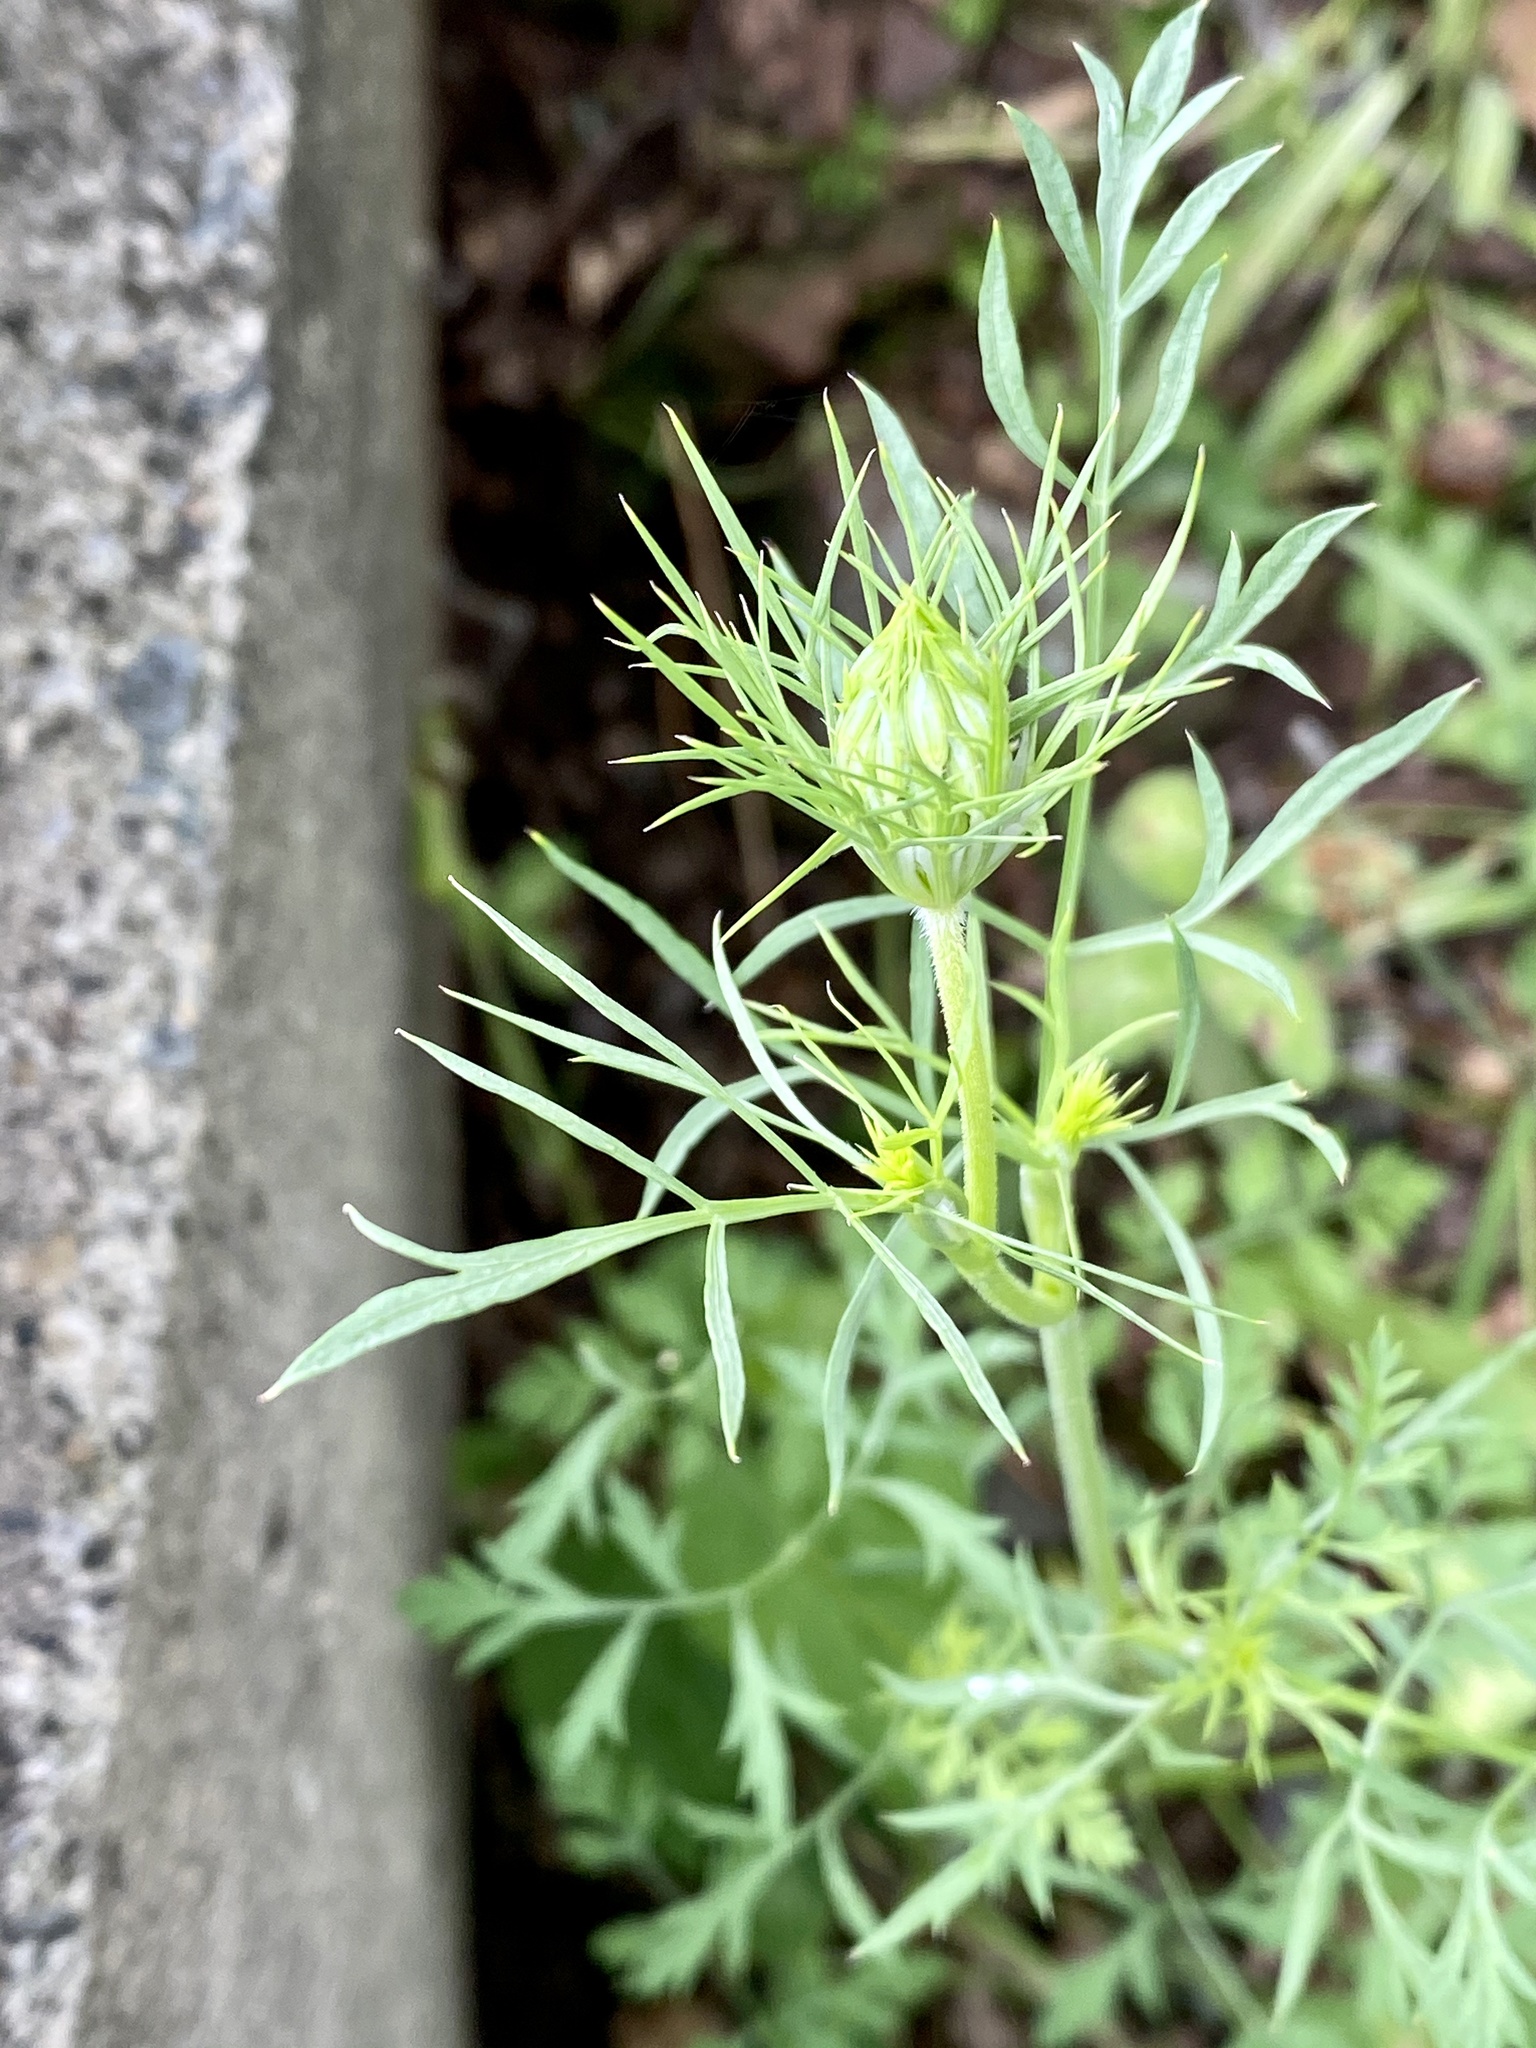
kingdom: Plantae
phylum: Tracheophyta
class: Magnoliopsida
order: Apiales
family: Apiaceae
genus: Daucus
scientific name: Daucus carota
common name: Wild carrot
